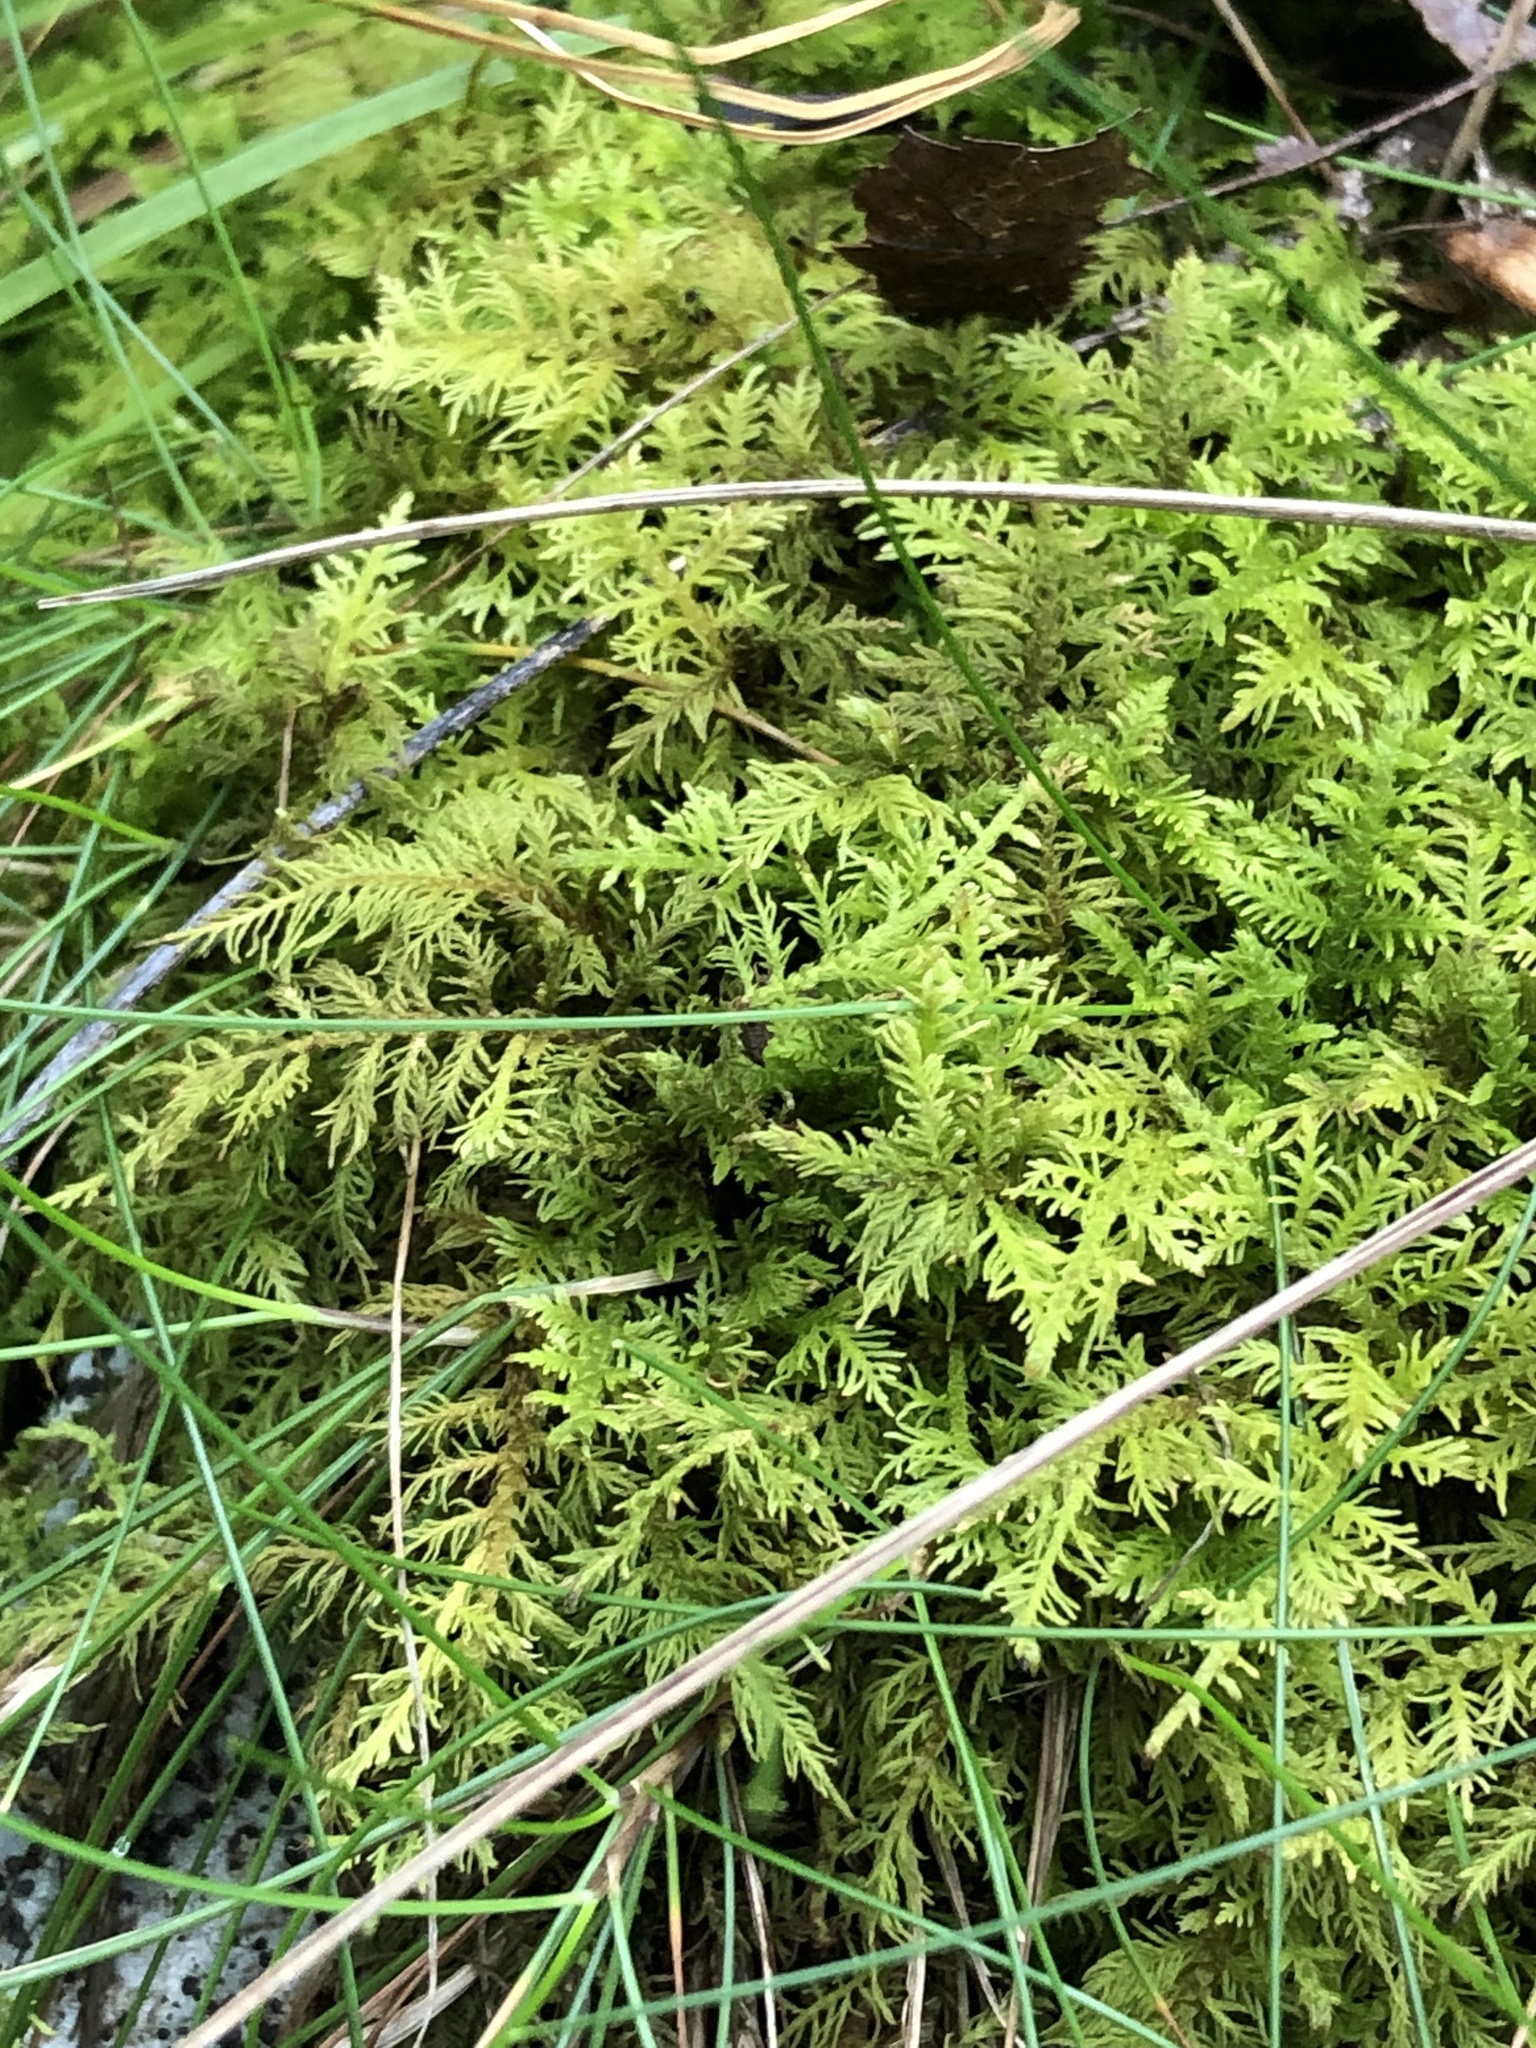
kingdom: Plantae
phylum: Bryophyta
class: Bryopsida
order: Hypnales
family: Thuidiaceae
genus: Thuidium
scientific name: Thuidium delicatulum
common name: Delicate fern moss
